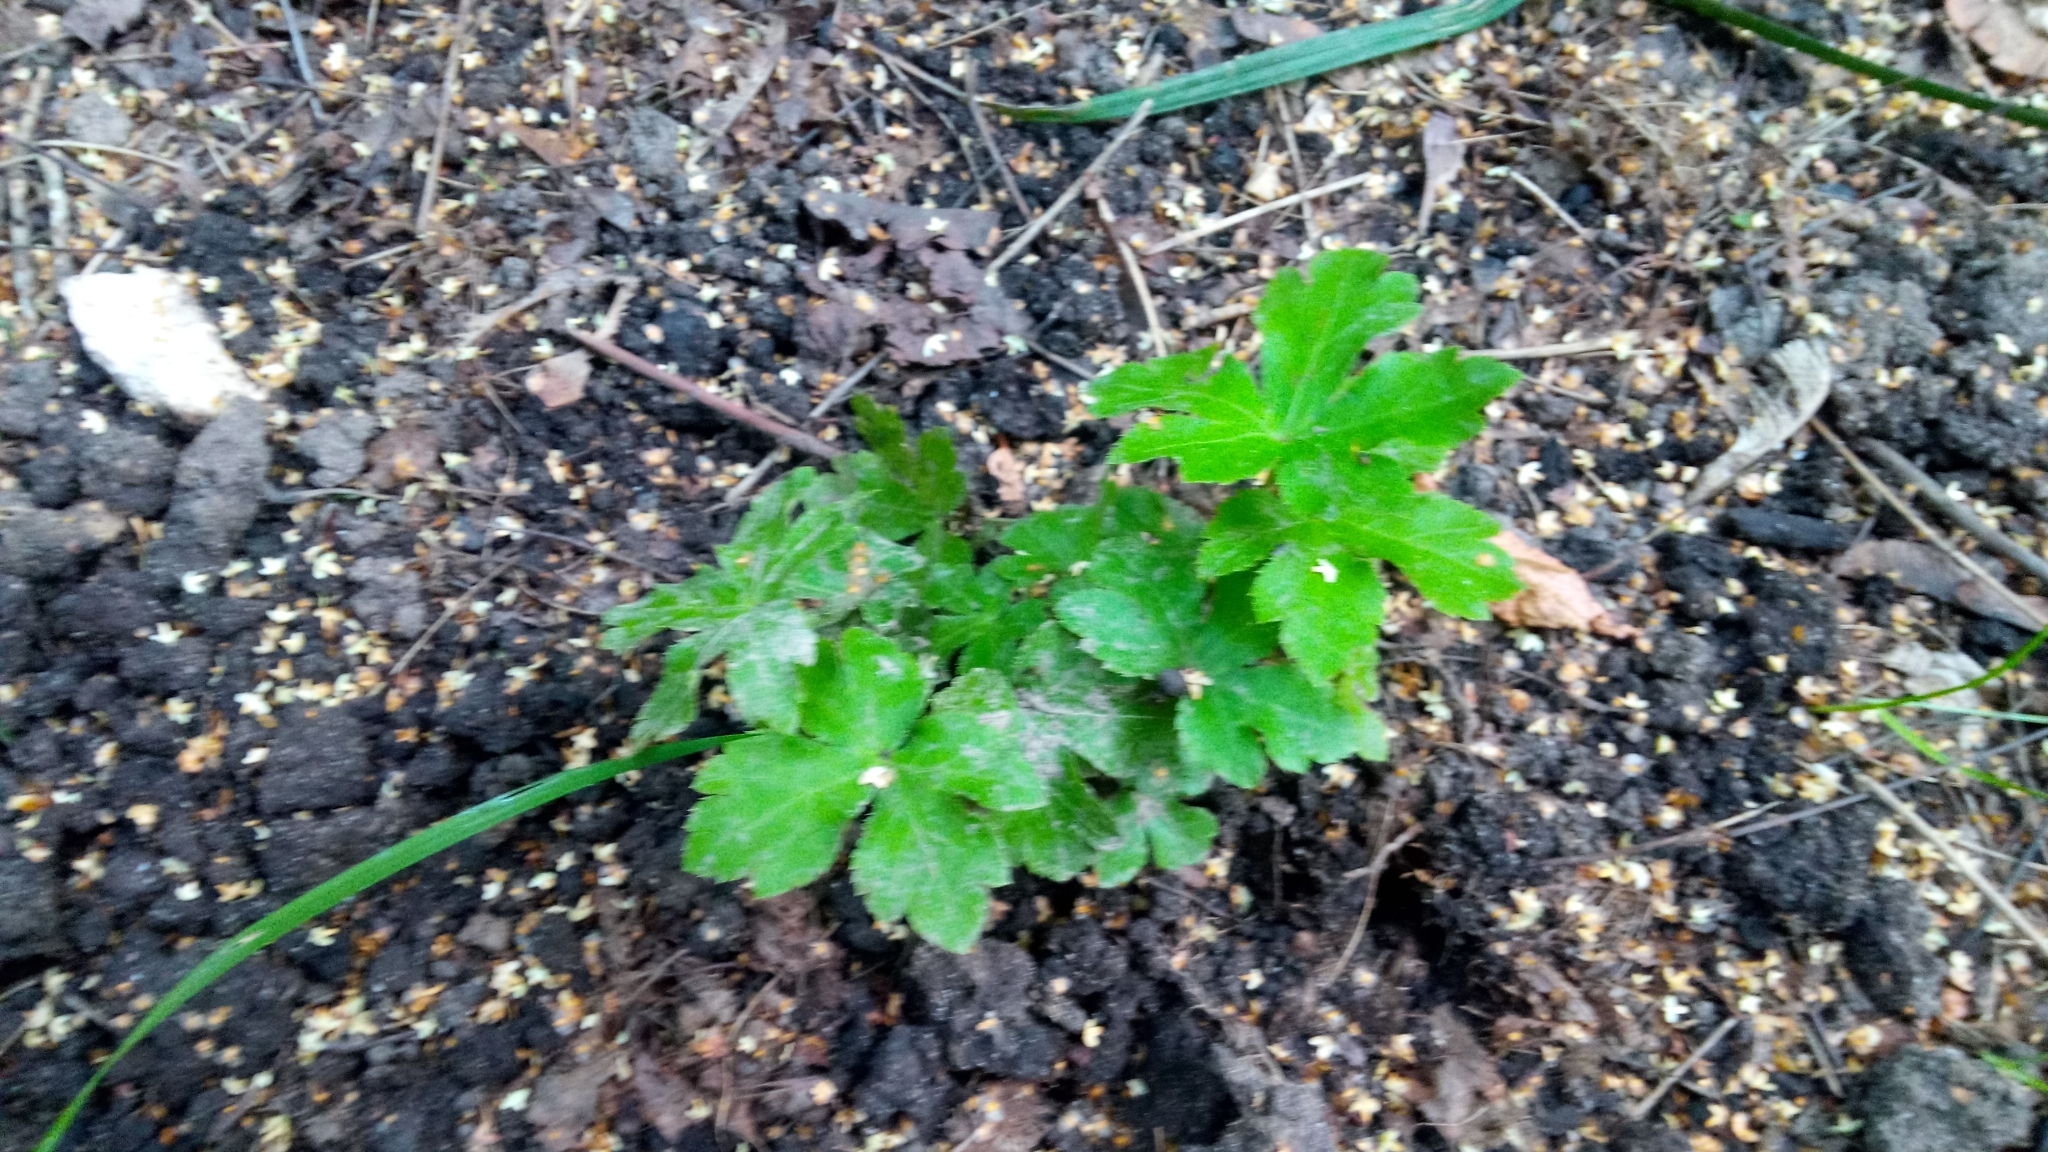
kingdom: Plantae
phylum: Tracheophyta
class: Magnoliopsida
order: Apiales
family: Apiaceae
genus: Sanicula
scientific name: Sanicula europaea
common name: Sanicle
